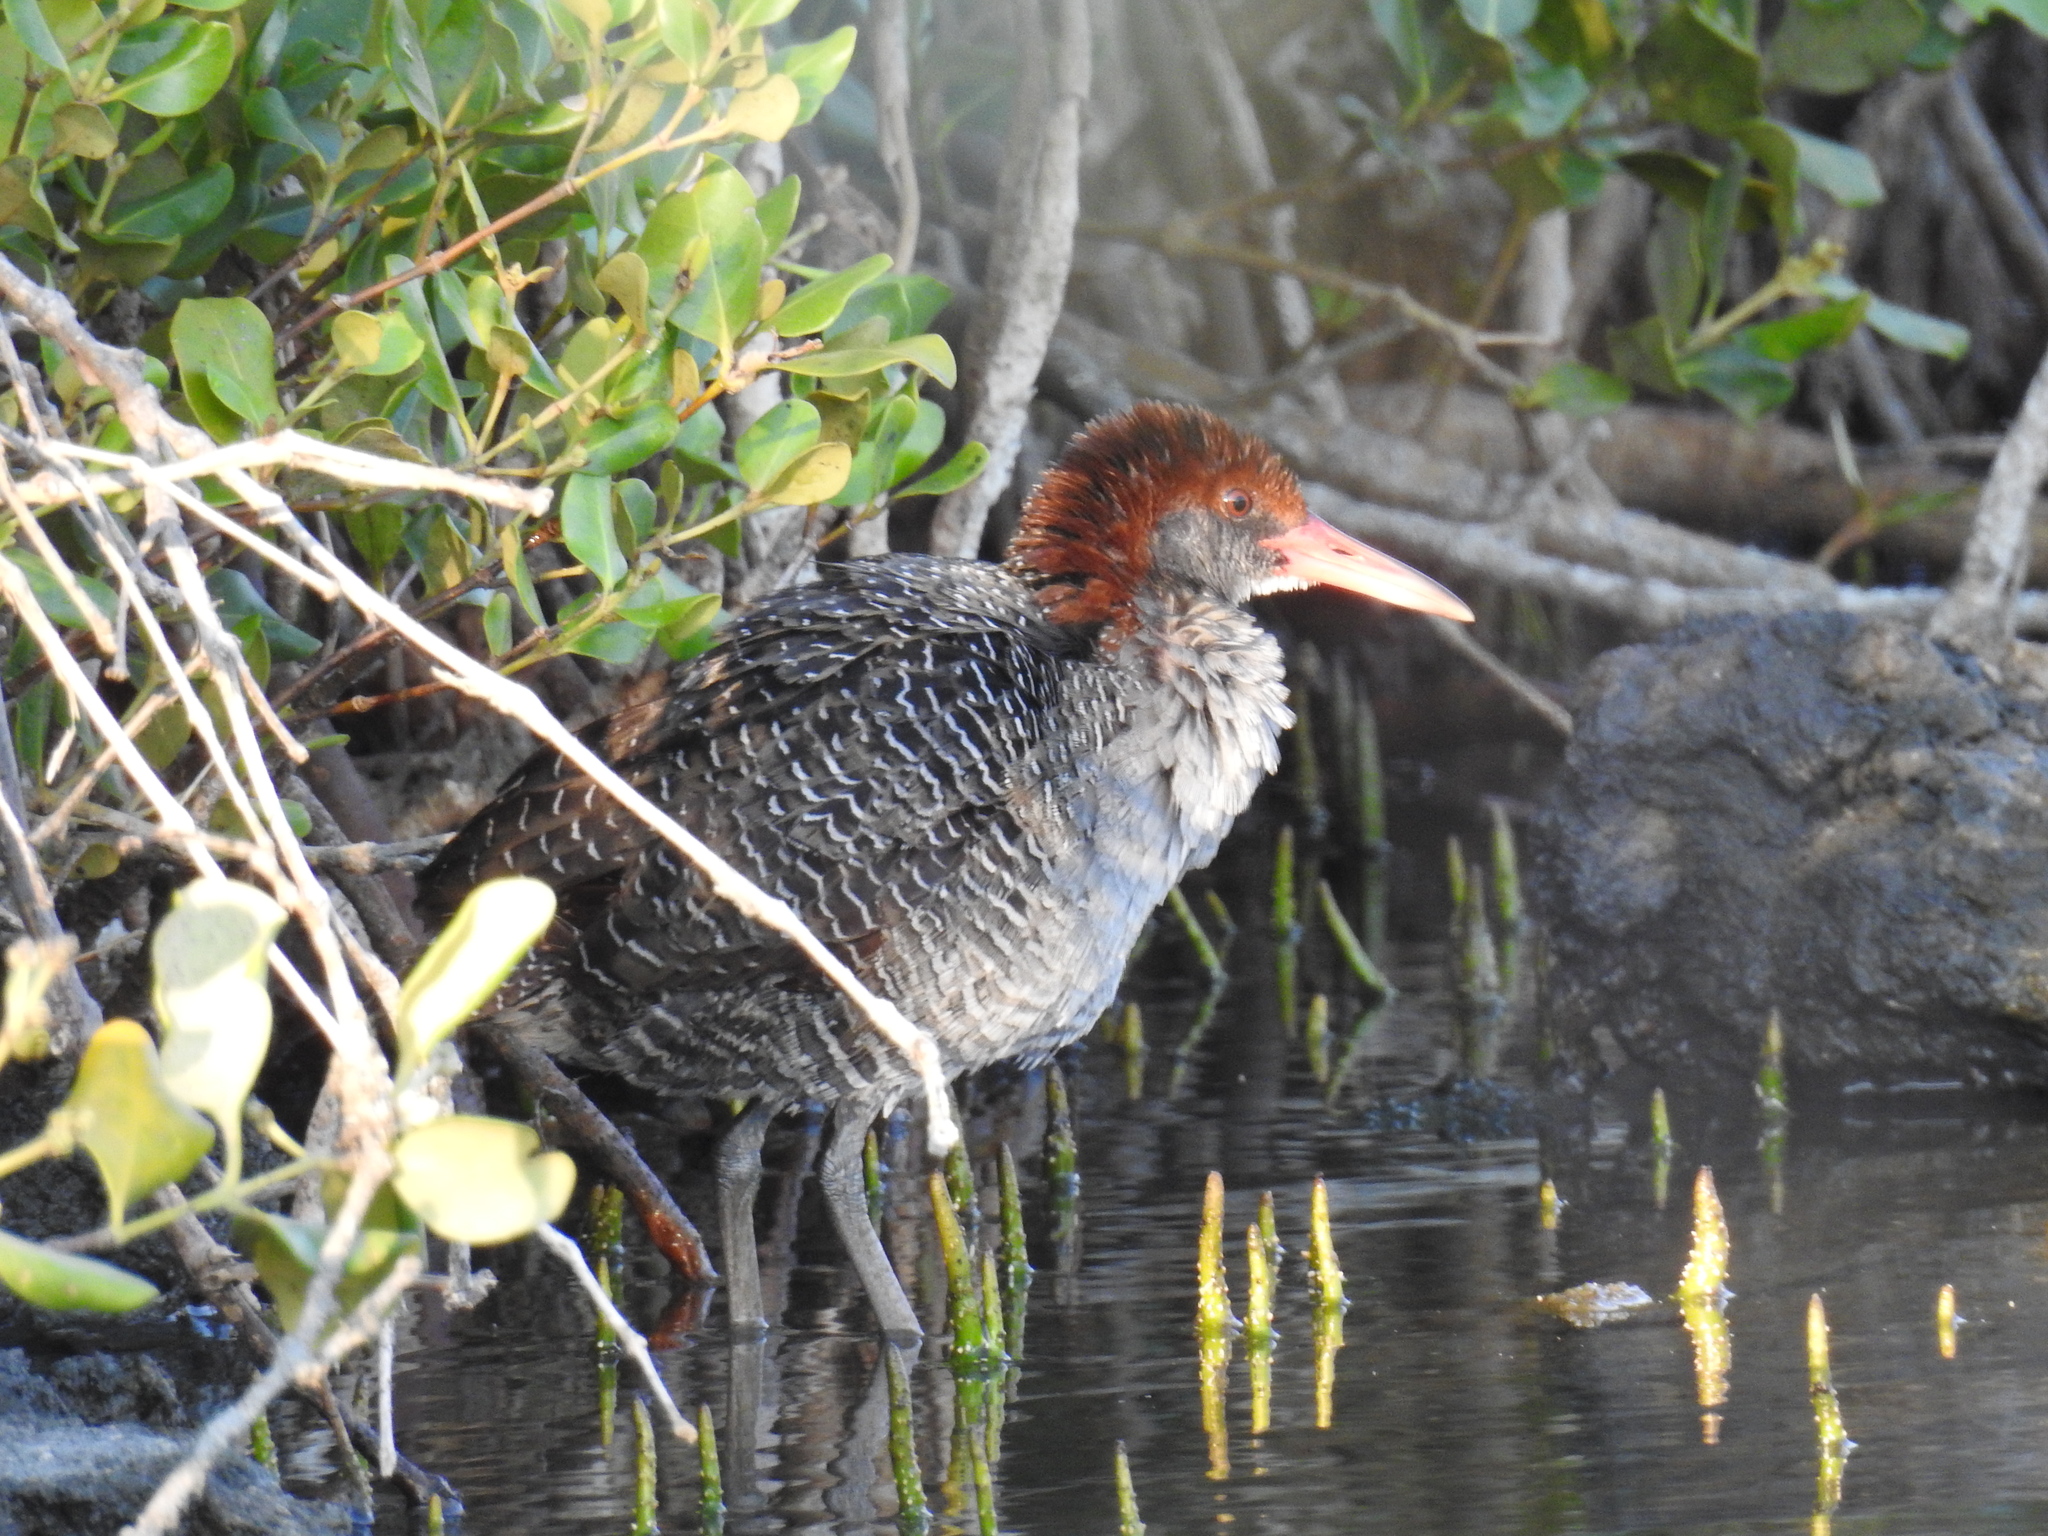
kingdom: Animalia
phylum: Chordata
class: Aves
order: Gruiformes
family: Rallidae
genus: Gallirallus
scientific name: Gallirallus striatus
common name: Slaty-breasted rail
